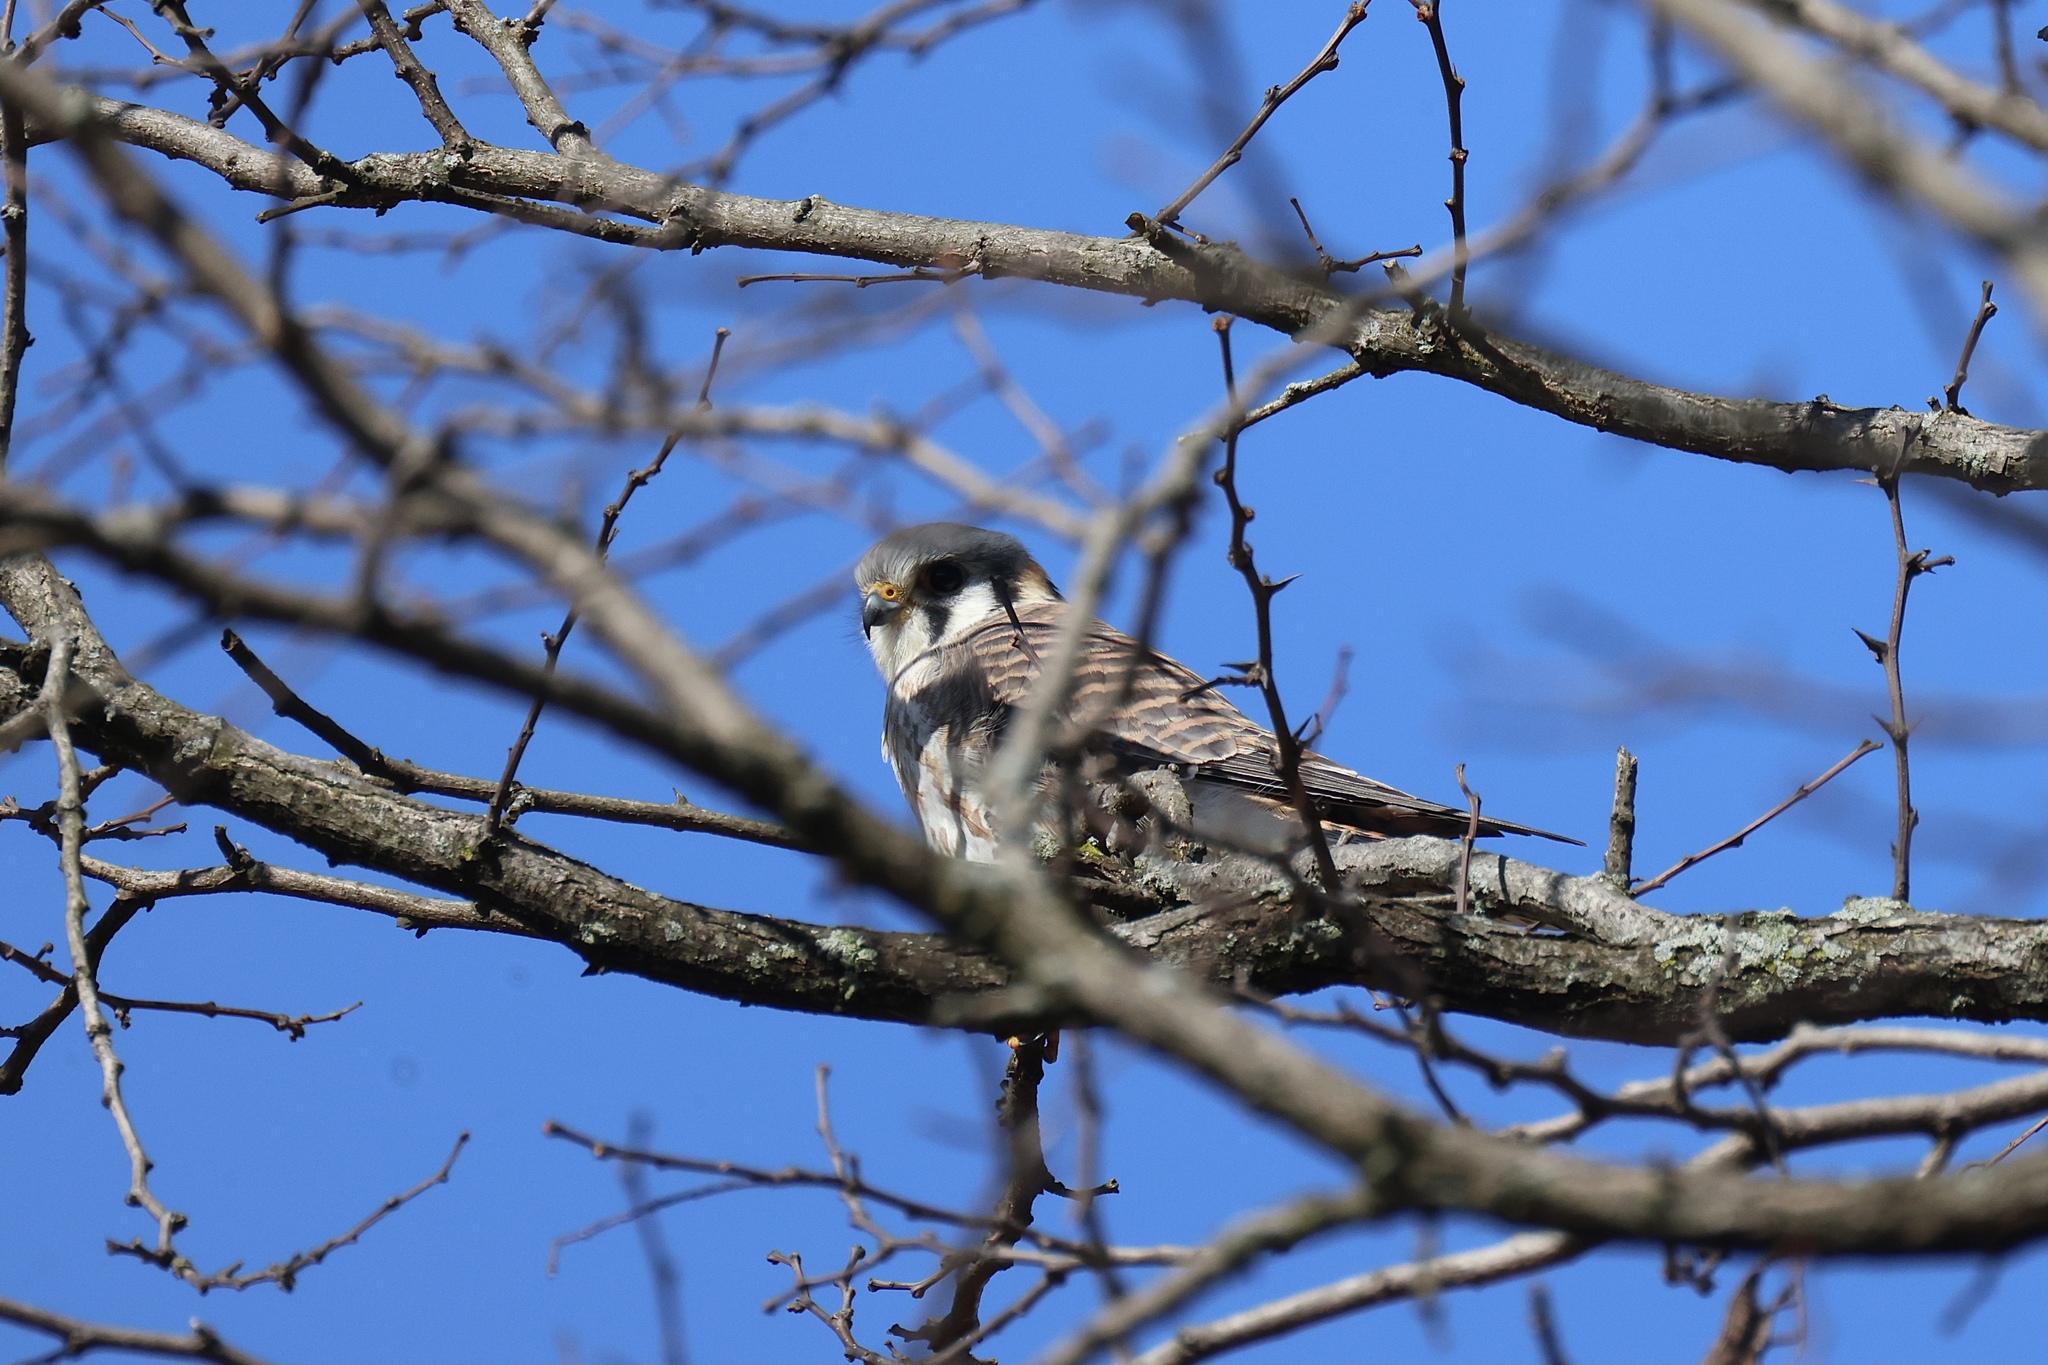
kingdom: Animalia
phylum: Chordata
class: Aves
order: Falconiformes
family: Falconidae
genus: Falco
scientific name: Falco sparverius
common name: American kestrel
